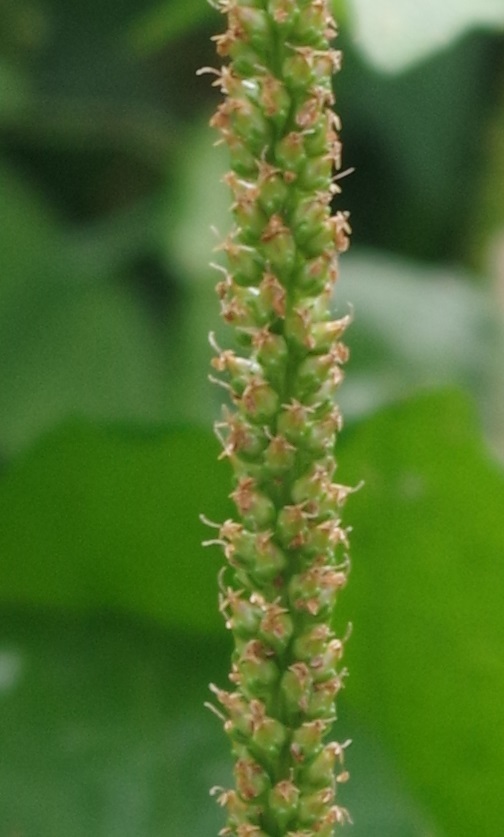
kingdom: Plantae
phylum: Tracheophyta
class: Magnoliopsida
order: Lamiales
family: Plantaginaceae
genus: Plantago
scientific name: Plantago major
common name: Common plantain
